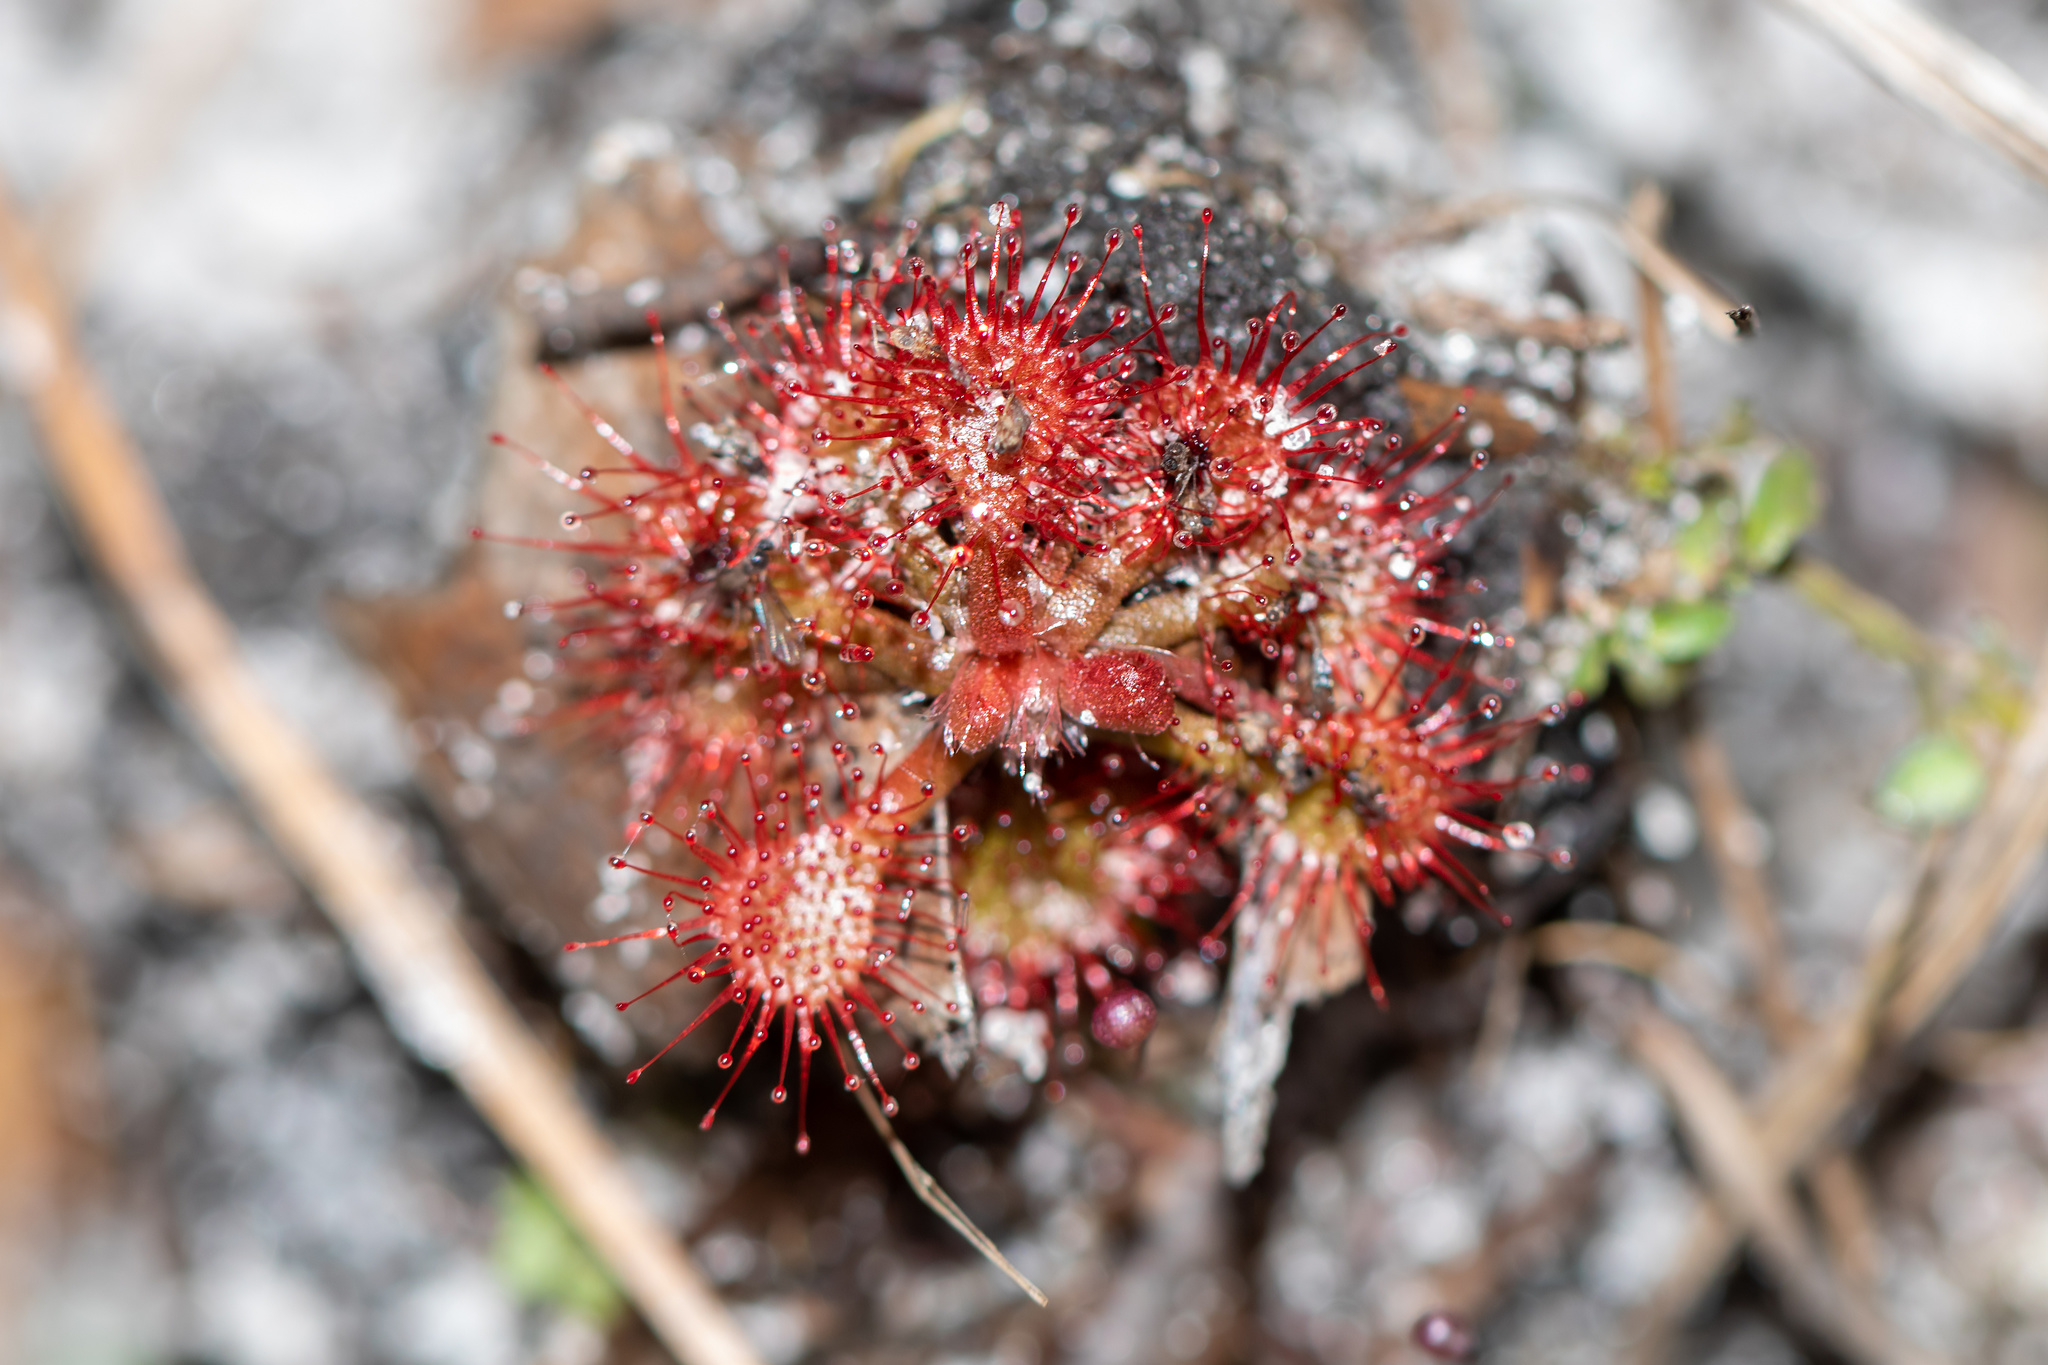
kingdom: Plantae
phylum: Tracheophyta
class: Magnoliopsida
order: Caryophyllales
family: Droseraceae
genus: Drosera
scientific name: Drosera capillaris
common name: Pink sundew
